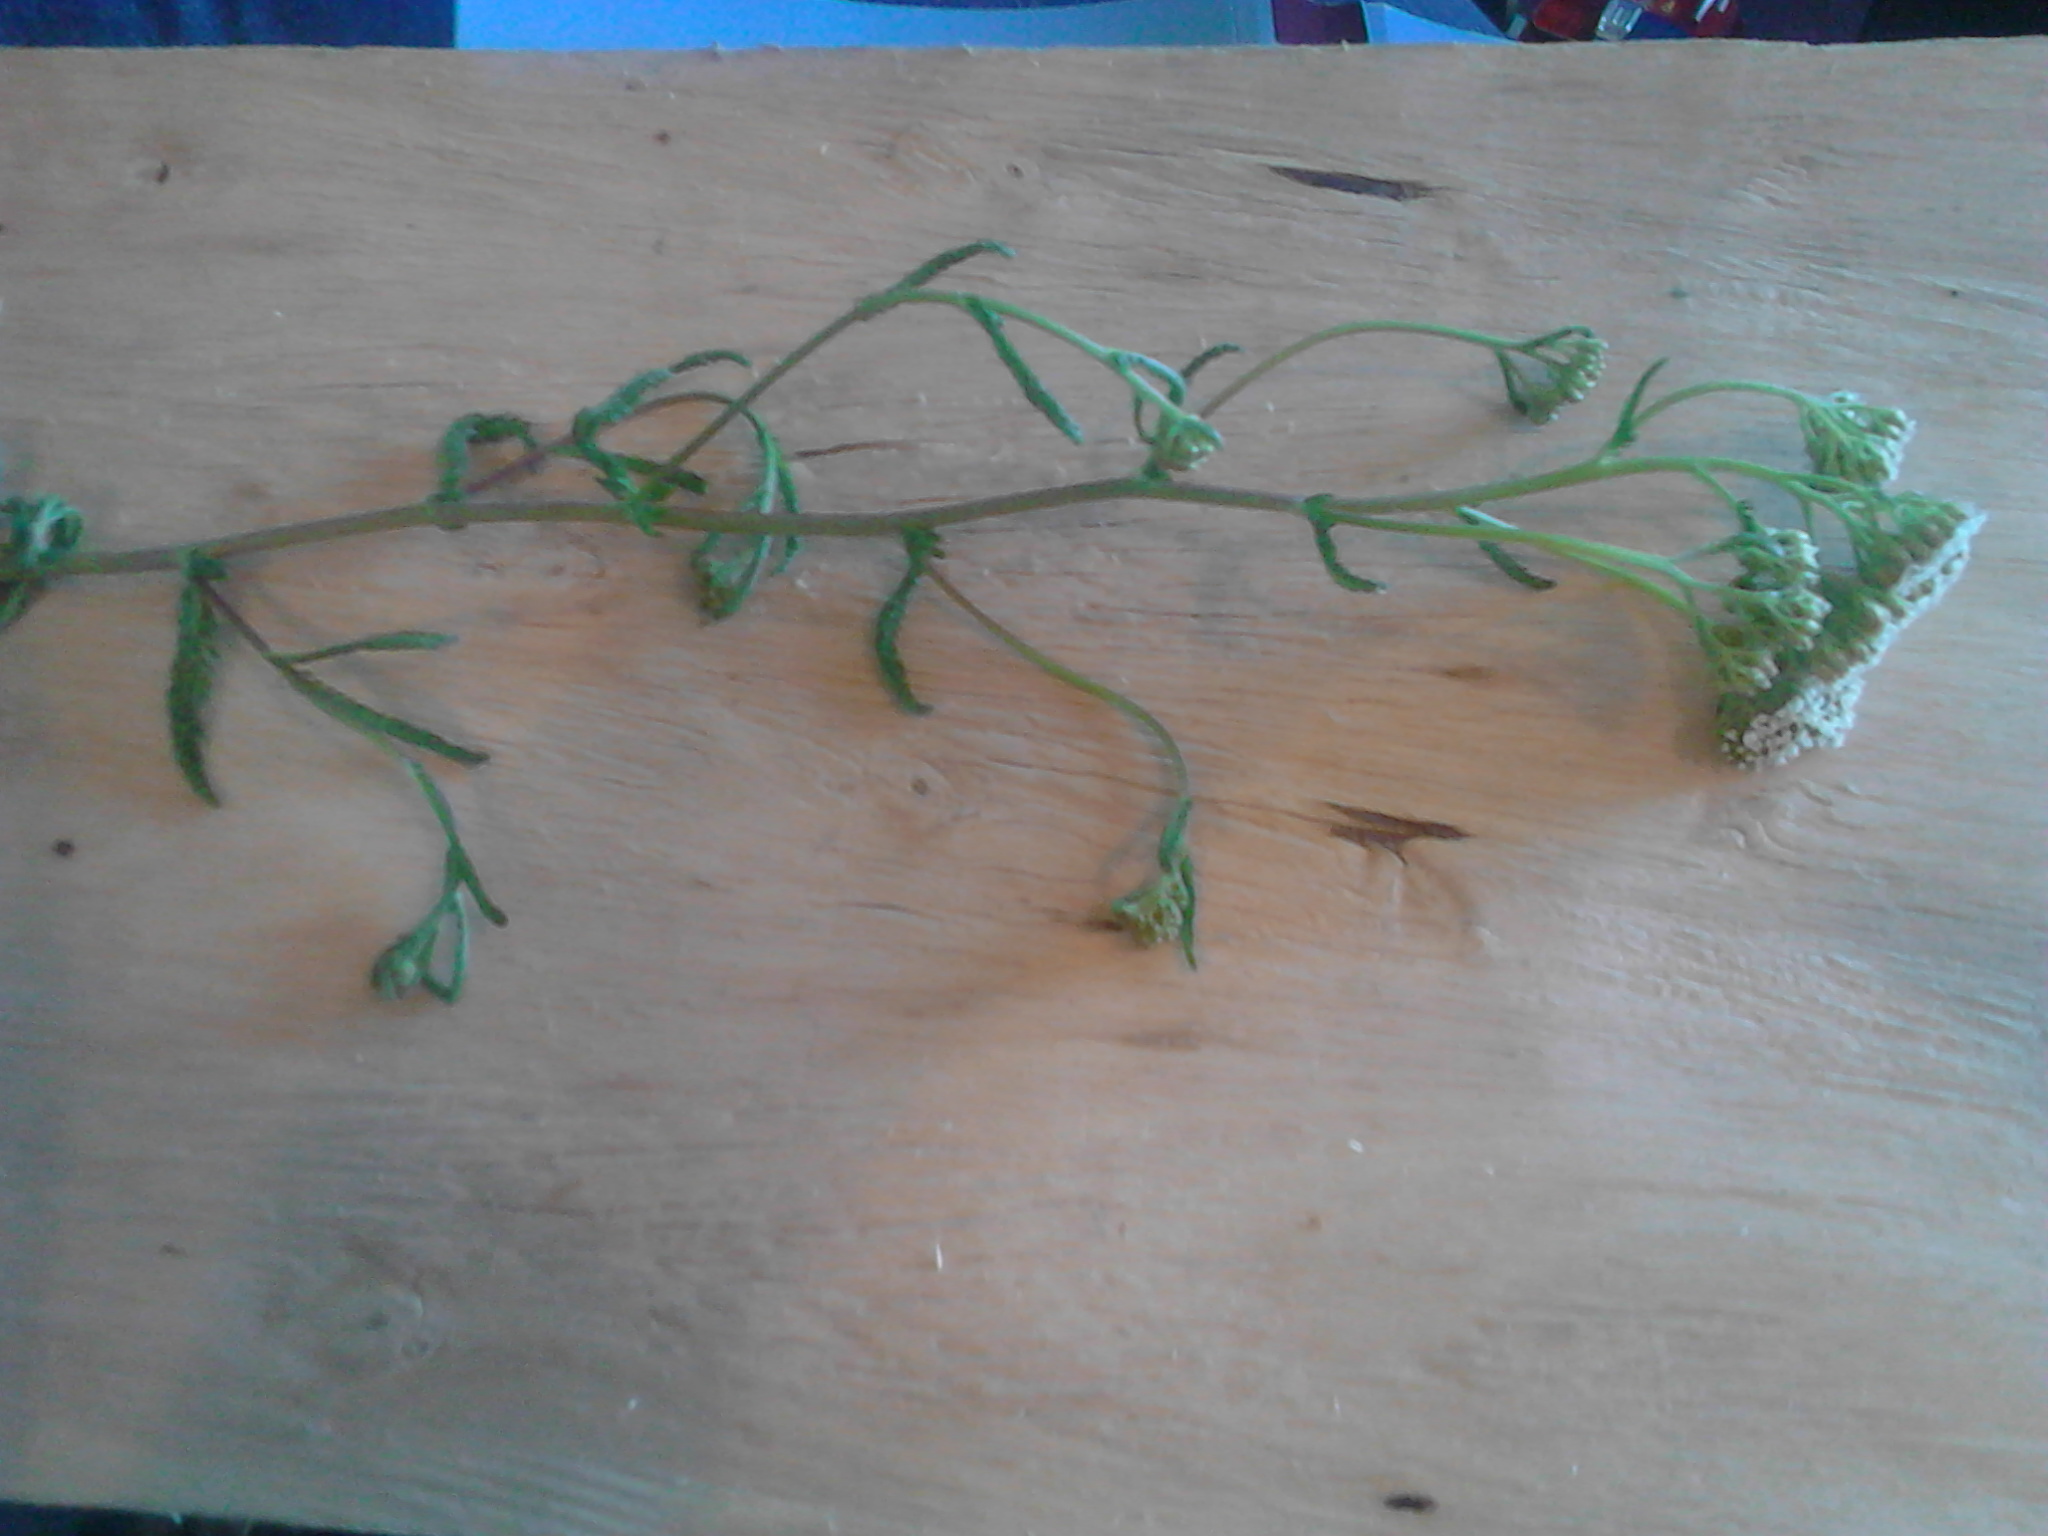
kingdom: Plantae
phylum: Tracheophyta
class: Magnoliopsida
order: Asterales
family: Asteraceae
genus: Achillea
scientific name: Achillea millefolium
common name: Yarrow
